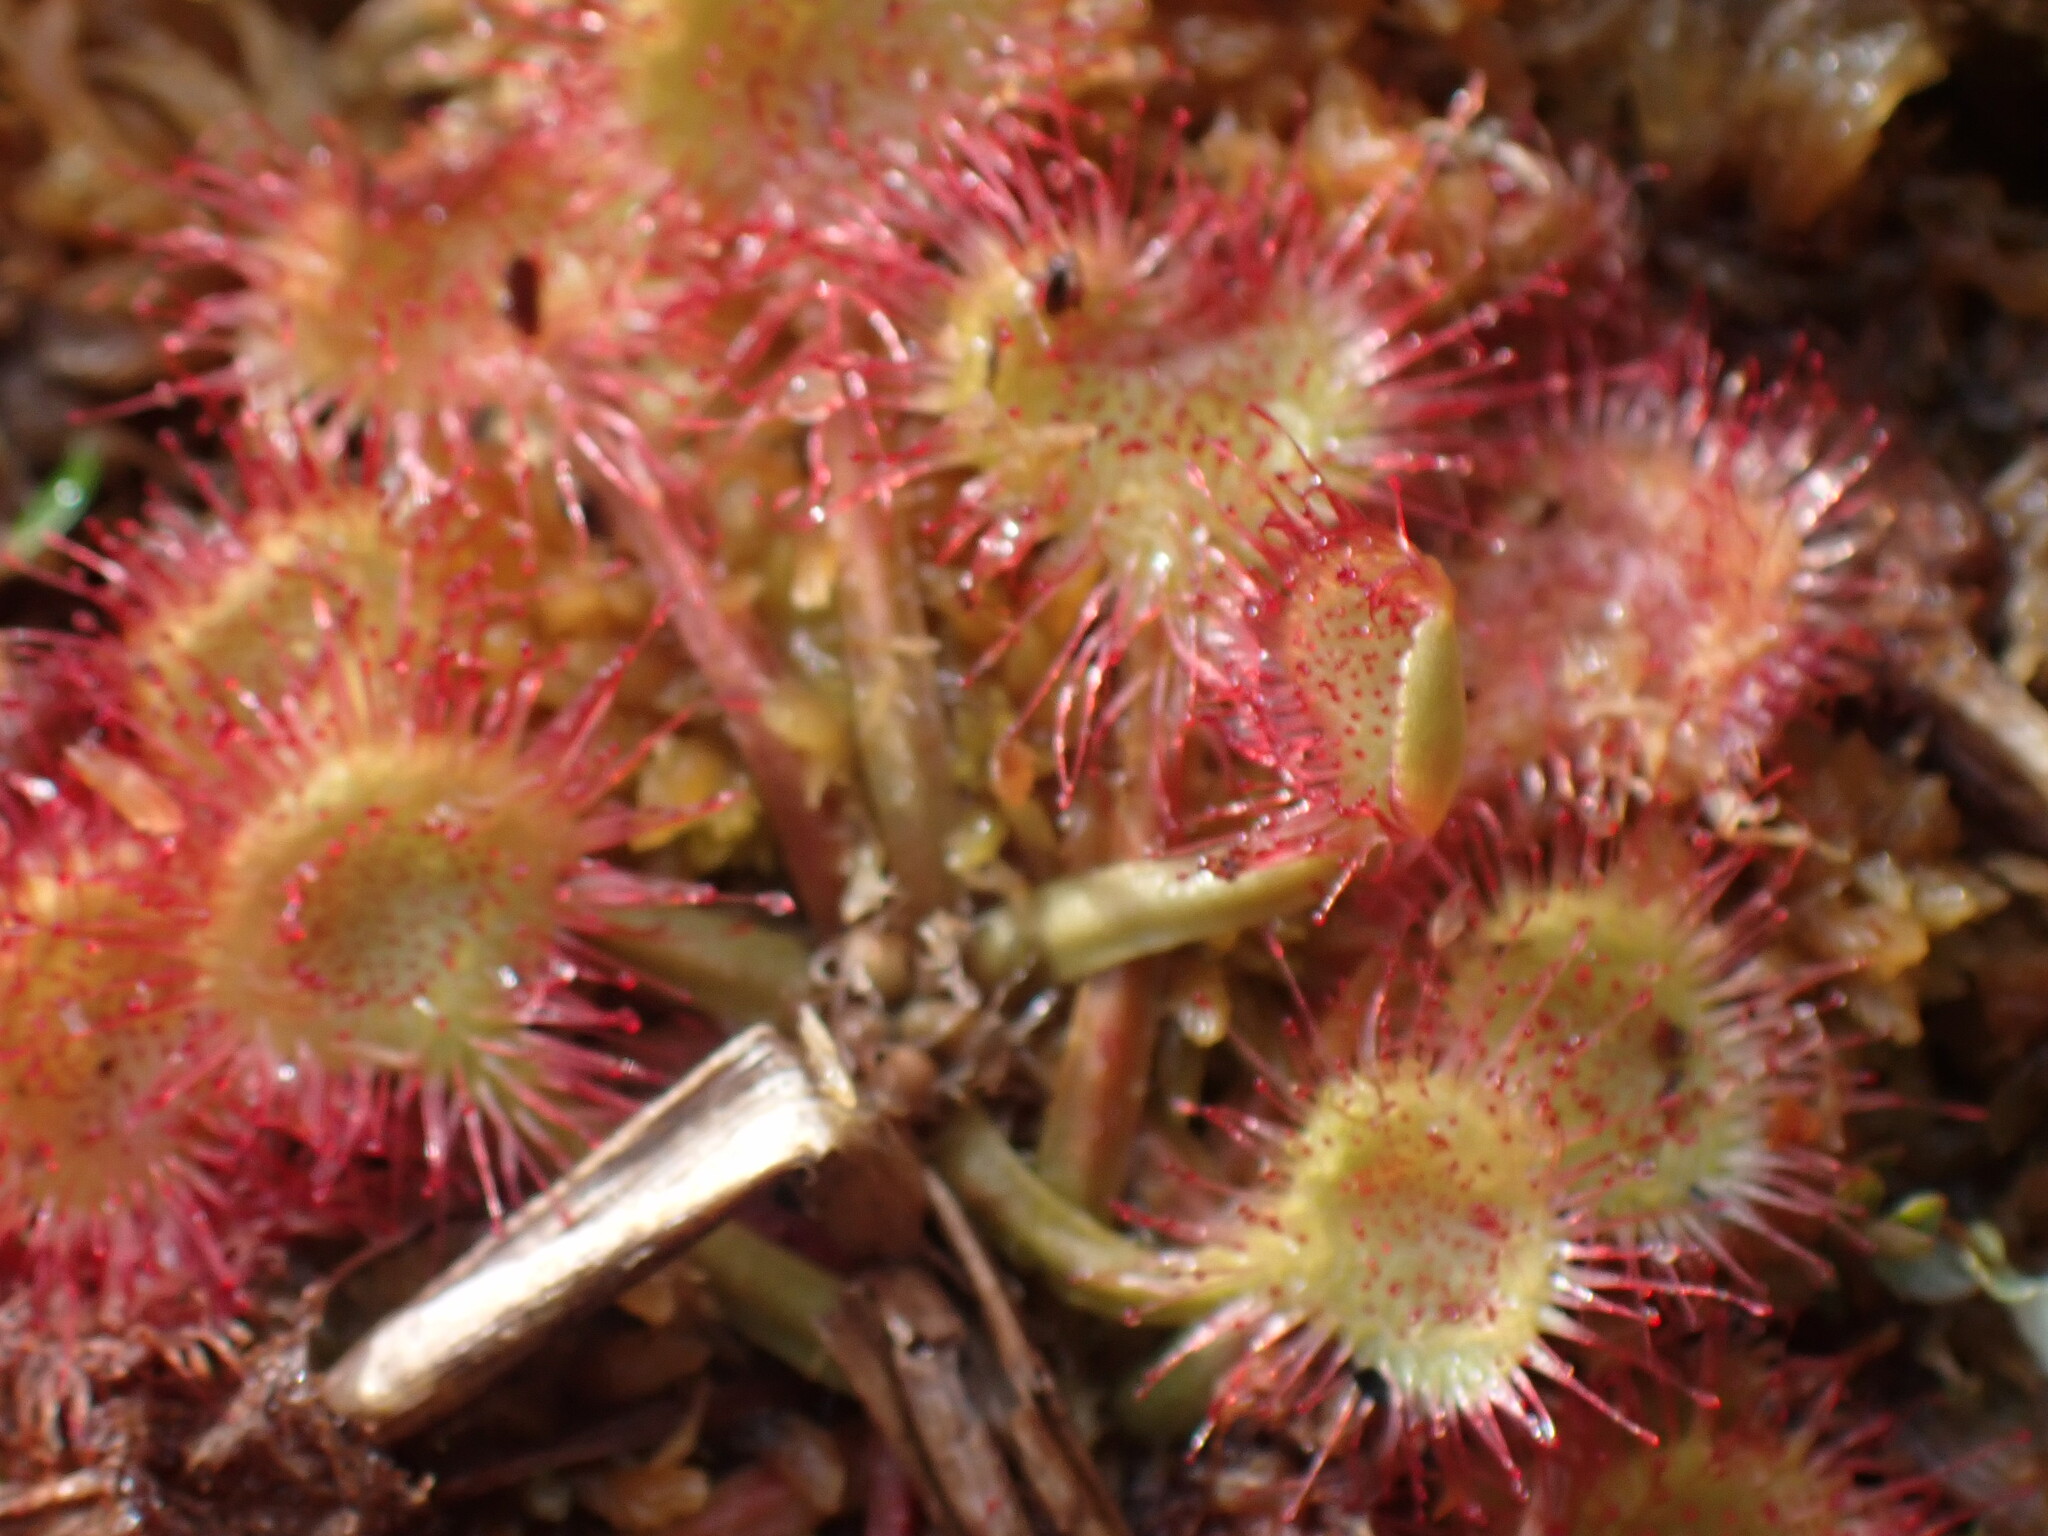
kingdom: Plantae
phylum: Tracheophyta
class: Magnoliopsida
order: Caryophyllales
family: Droseraceae
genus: Drosera
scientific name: Drosera rotundifolia
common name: Round-leaved sundew
